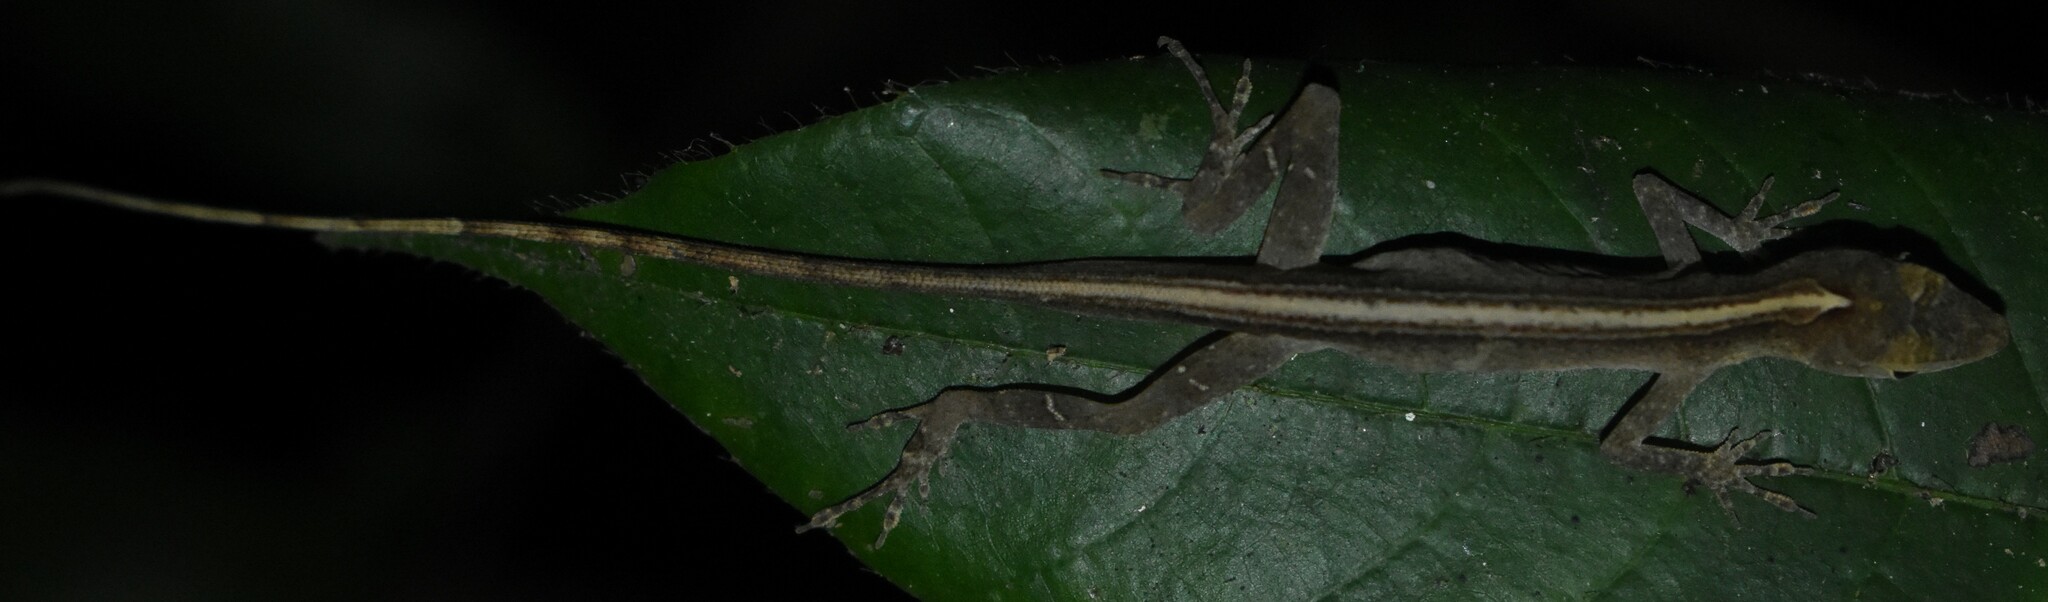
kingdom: Animalia
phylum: Chordata
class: Squamata
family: Dactyloidae
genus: Anolis
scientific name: Anolis fuscoauratus
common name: Brown-eared anole
